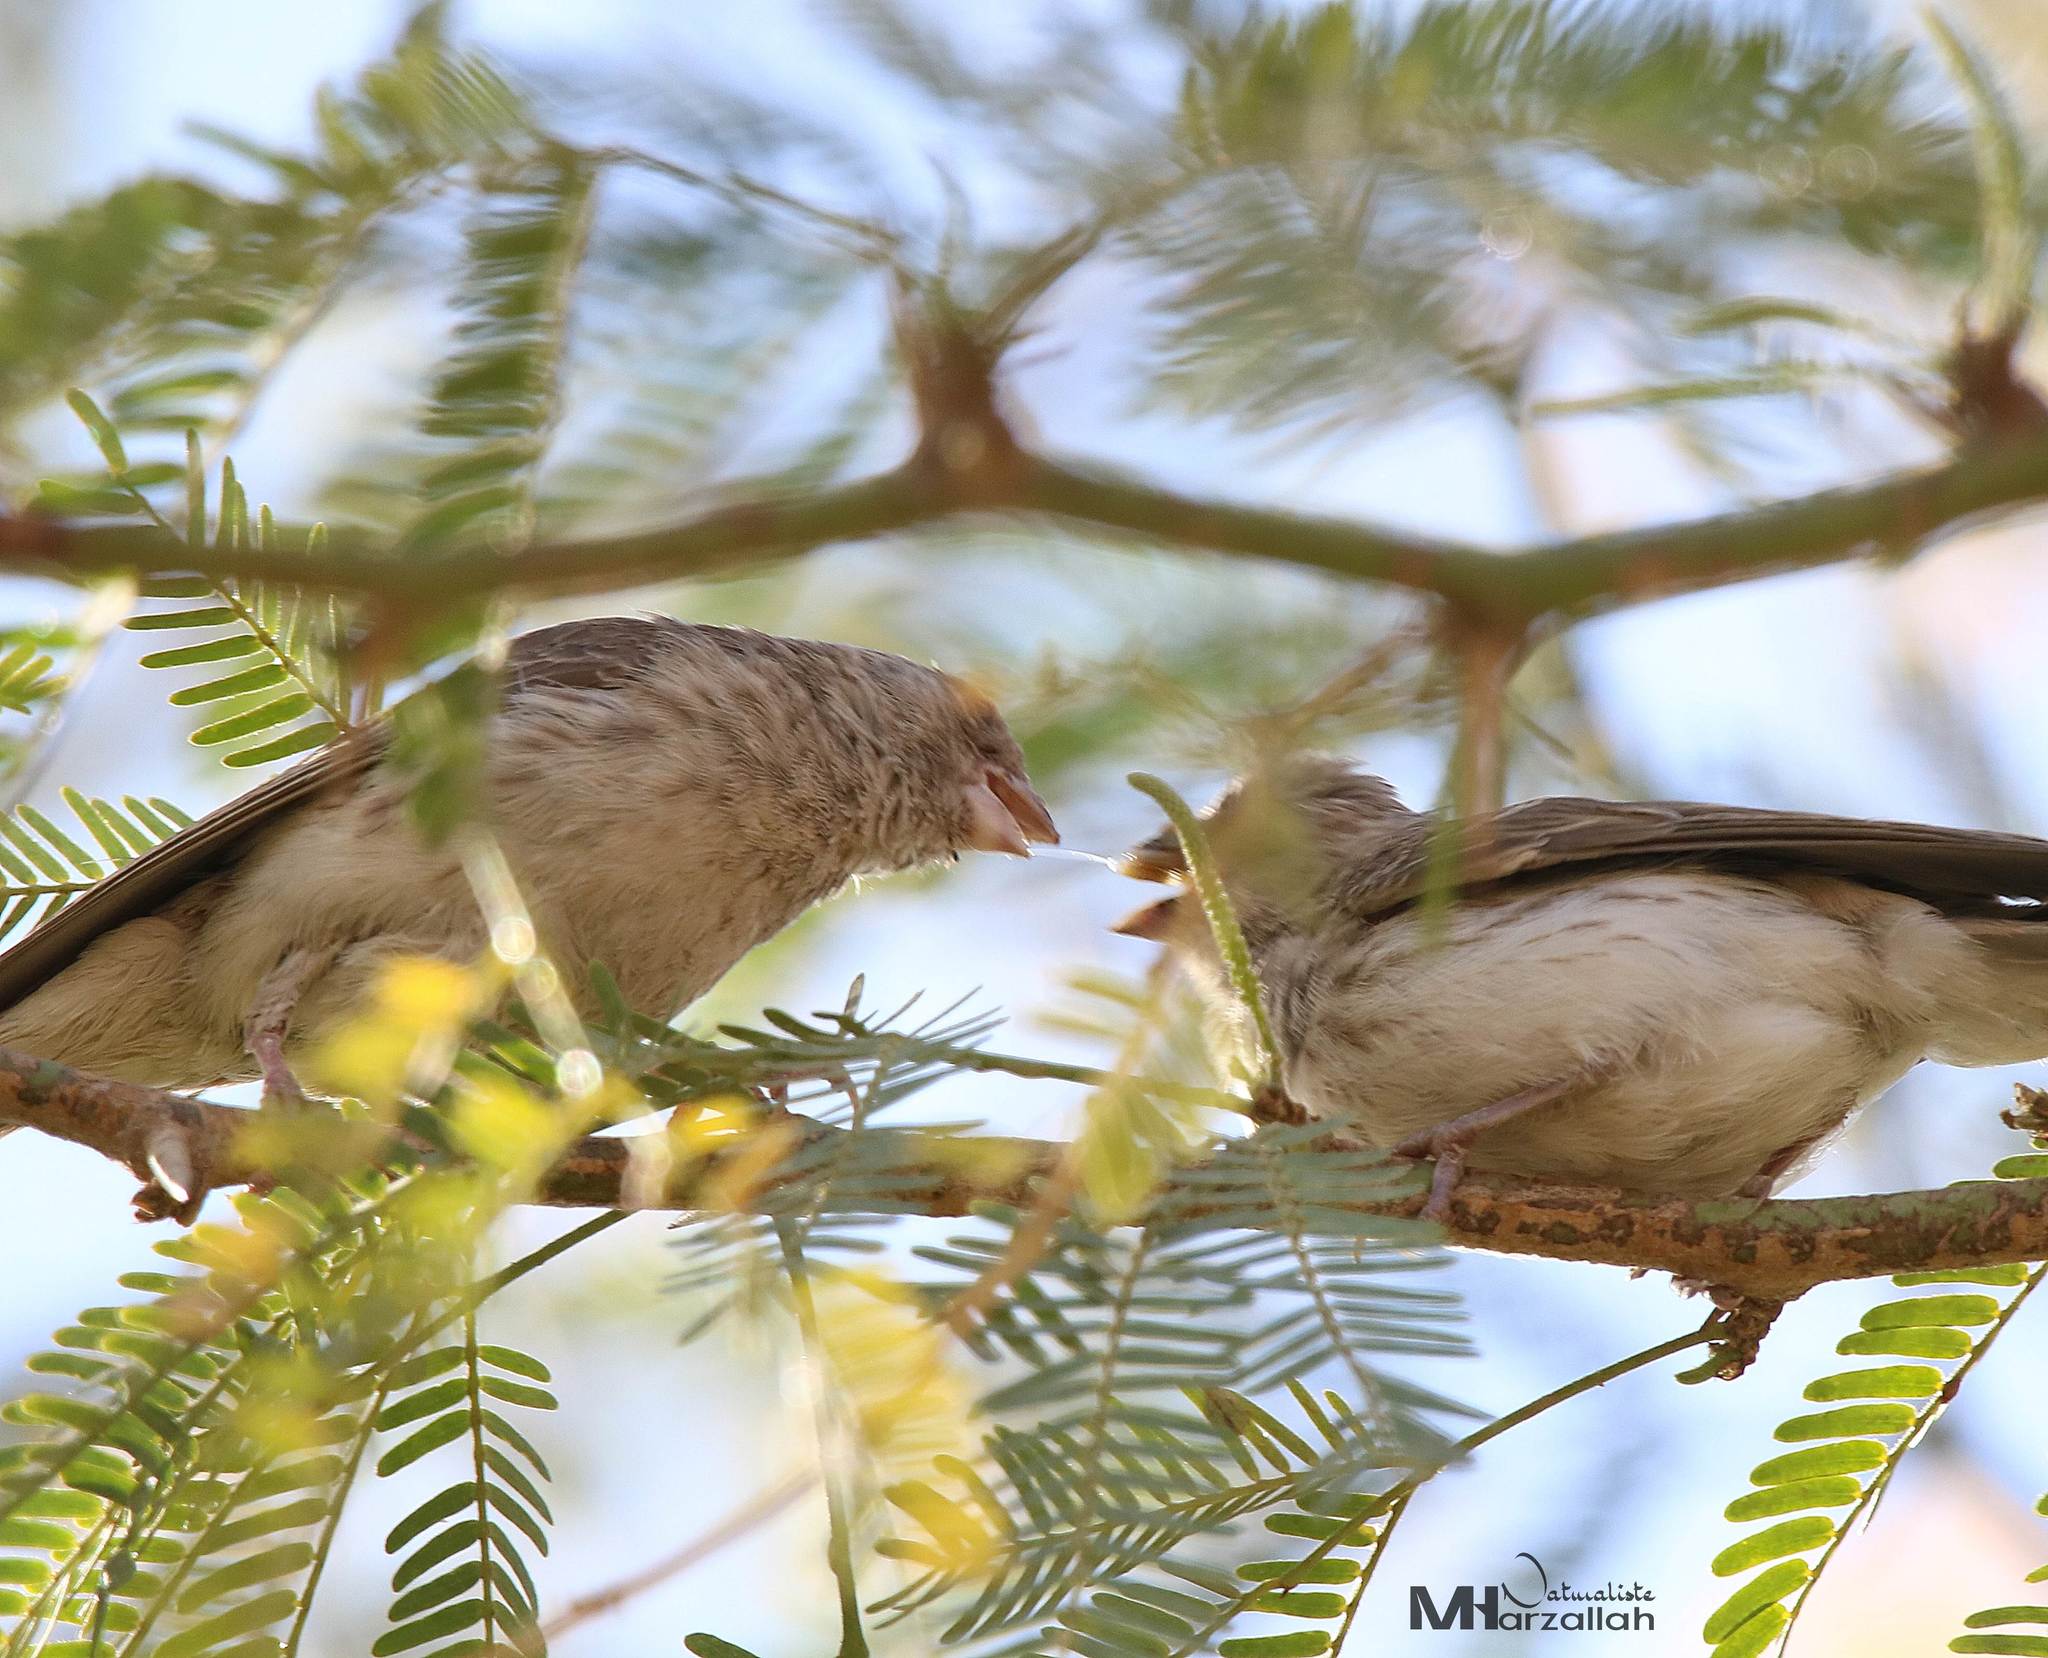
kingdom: Animalia
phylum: Chordata
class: Aves
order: Passeriformes
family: Fringillidae
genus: Crithagra
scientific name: Crithagra leucopygia
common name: White-rumped seedeater
